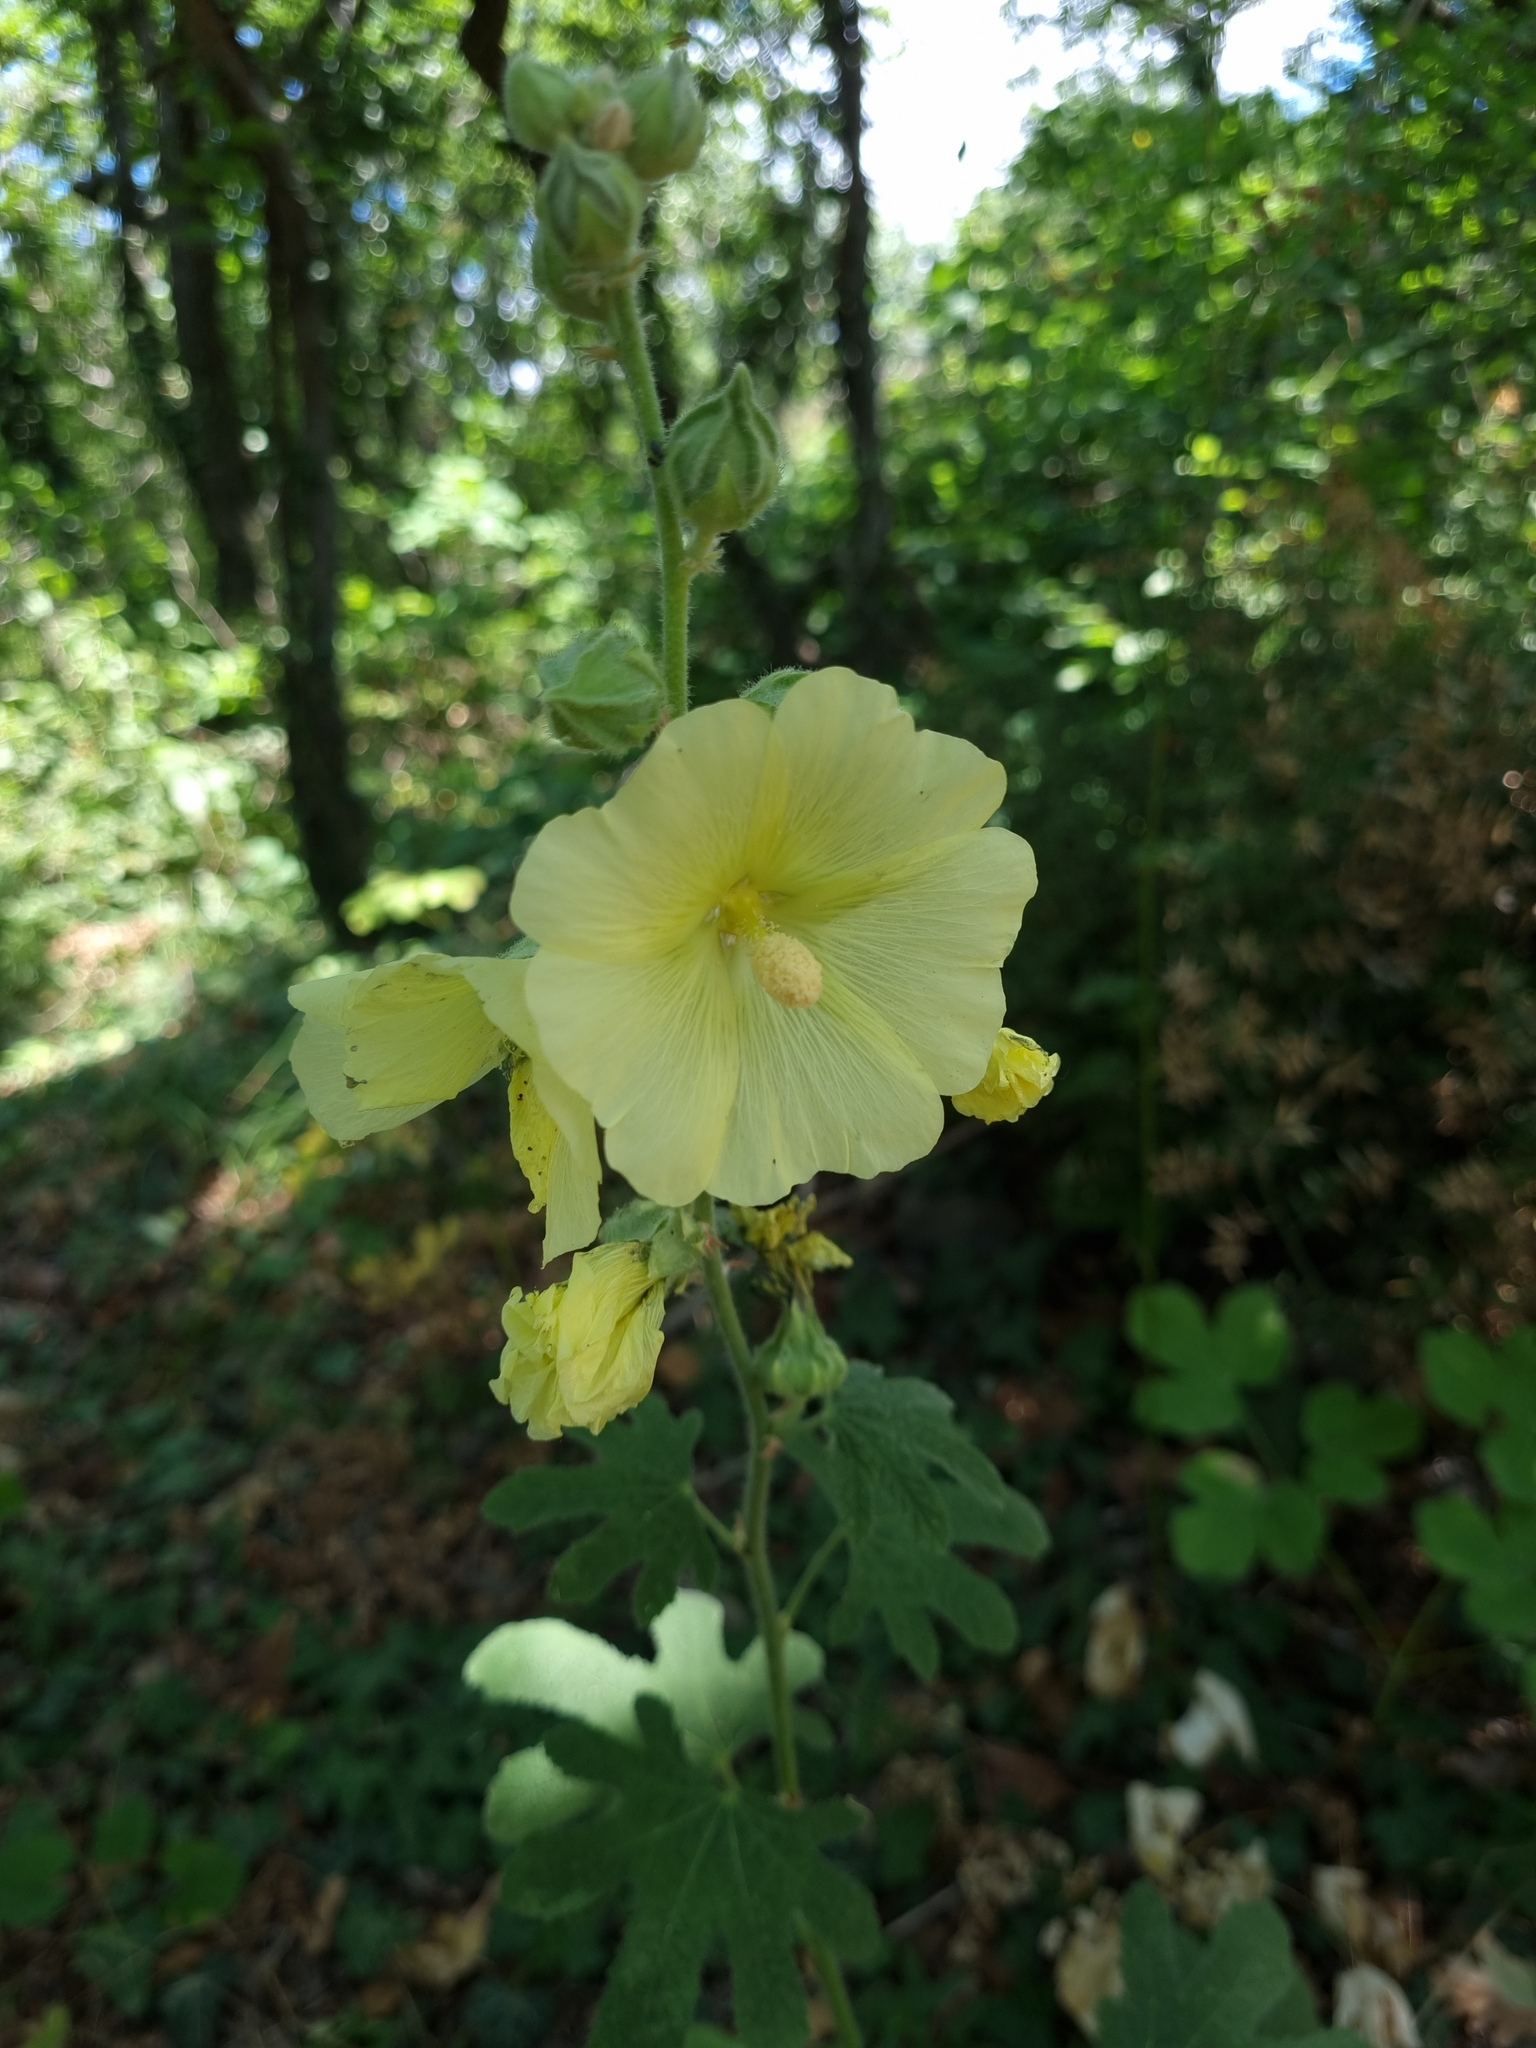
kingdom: Plantae
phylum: Tracheophyta
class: Magnoliopsida
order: Malvales
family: Malvaceae
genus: Alcea
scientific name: Alcea rugosa
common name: Russian hollyhock
